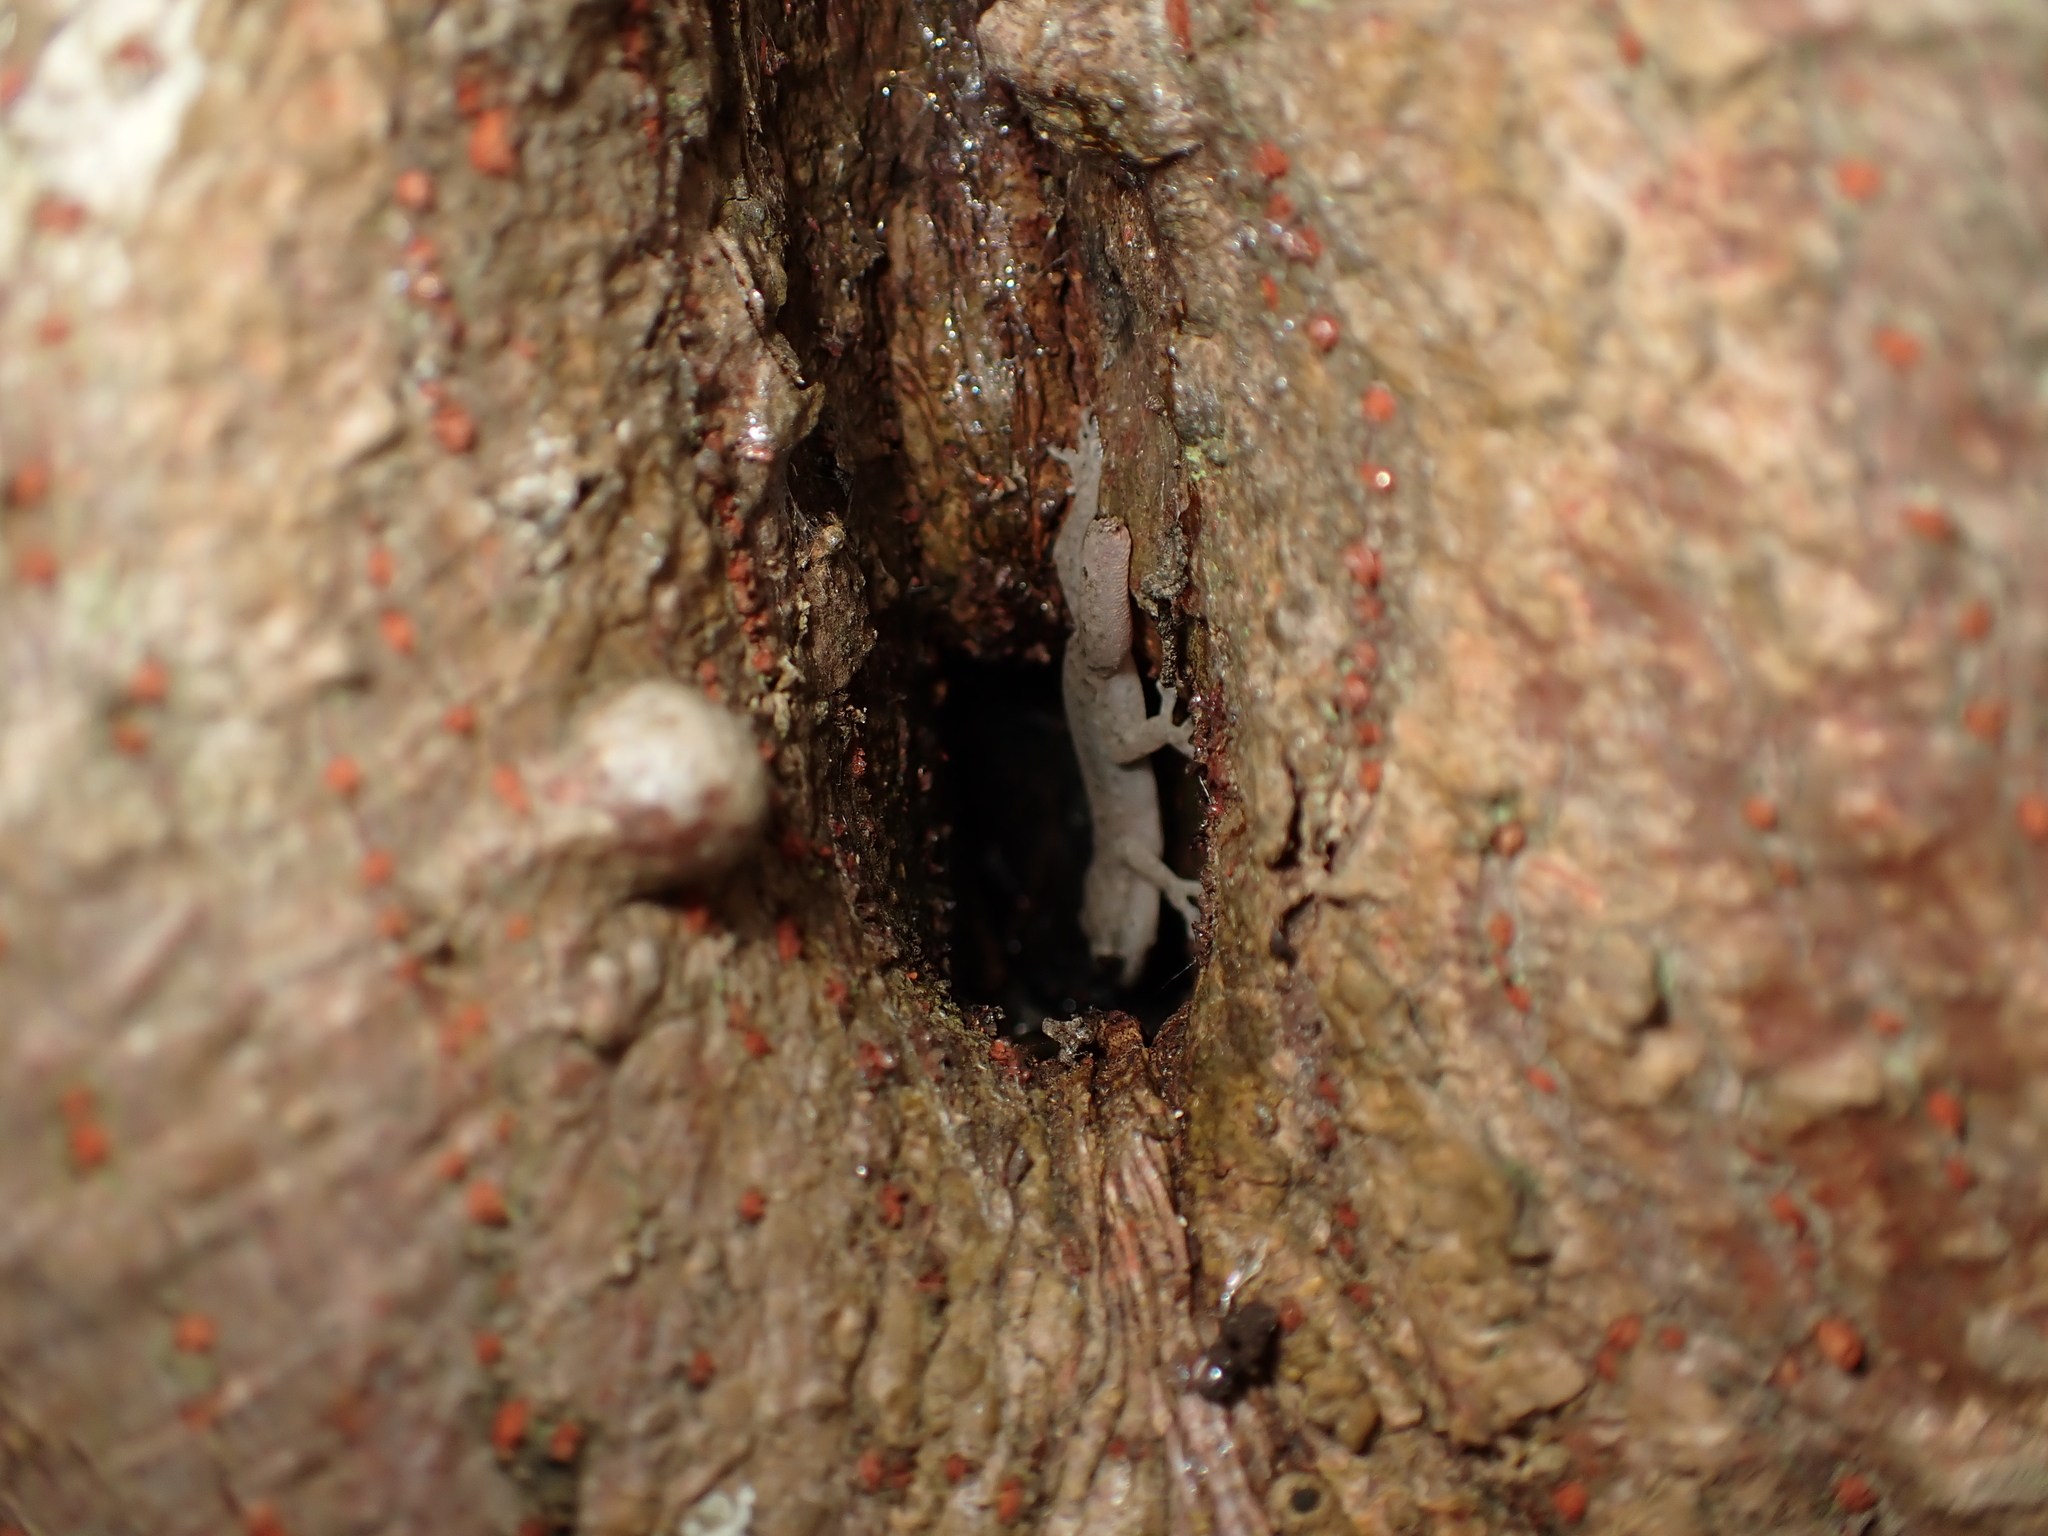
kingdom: Animalia
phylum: Chordata
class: Squamata
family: Gekkonidae
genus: Hemidactylus
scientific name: Hemidactylus bowringii
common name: Oriental leaf-toed gecko
